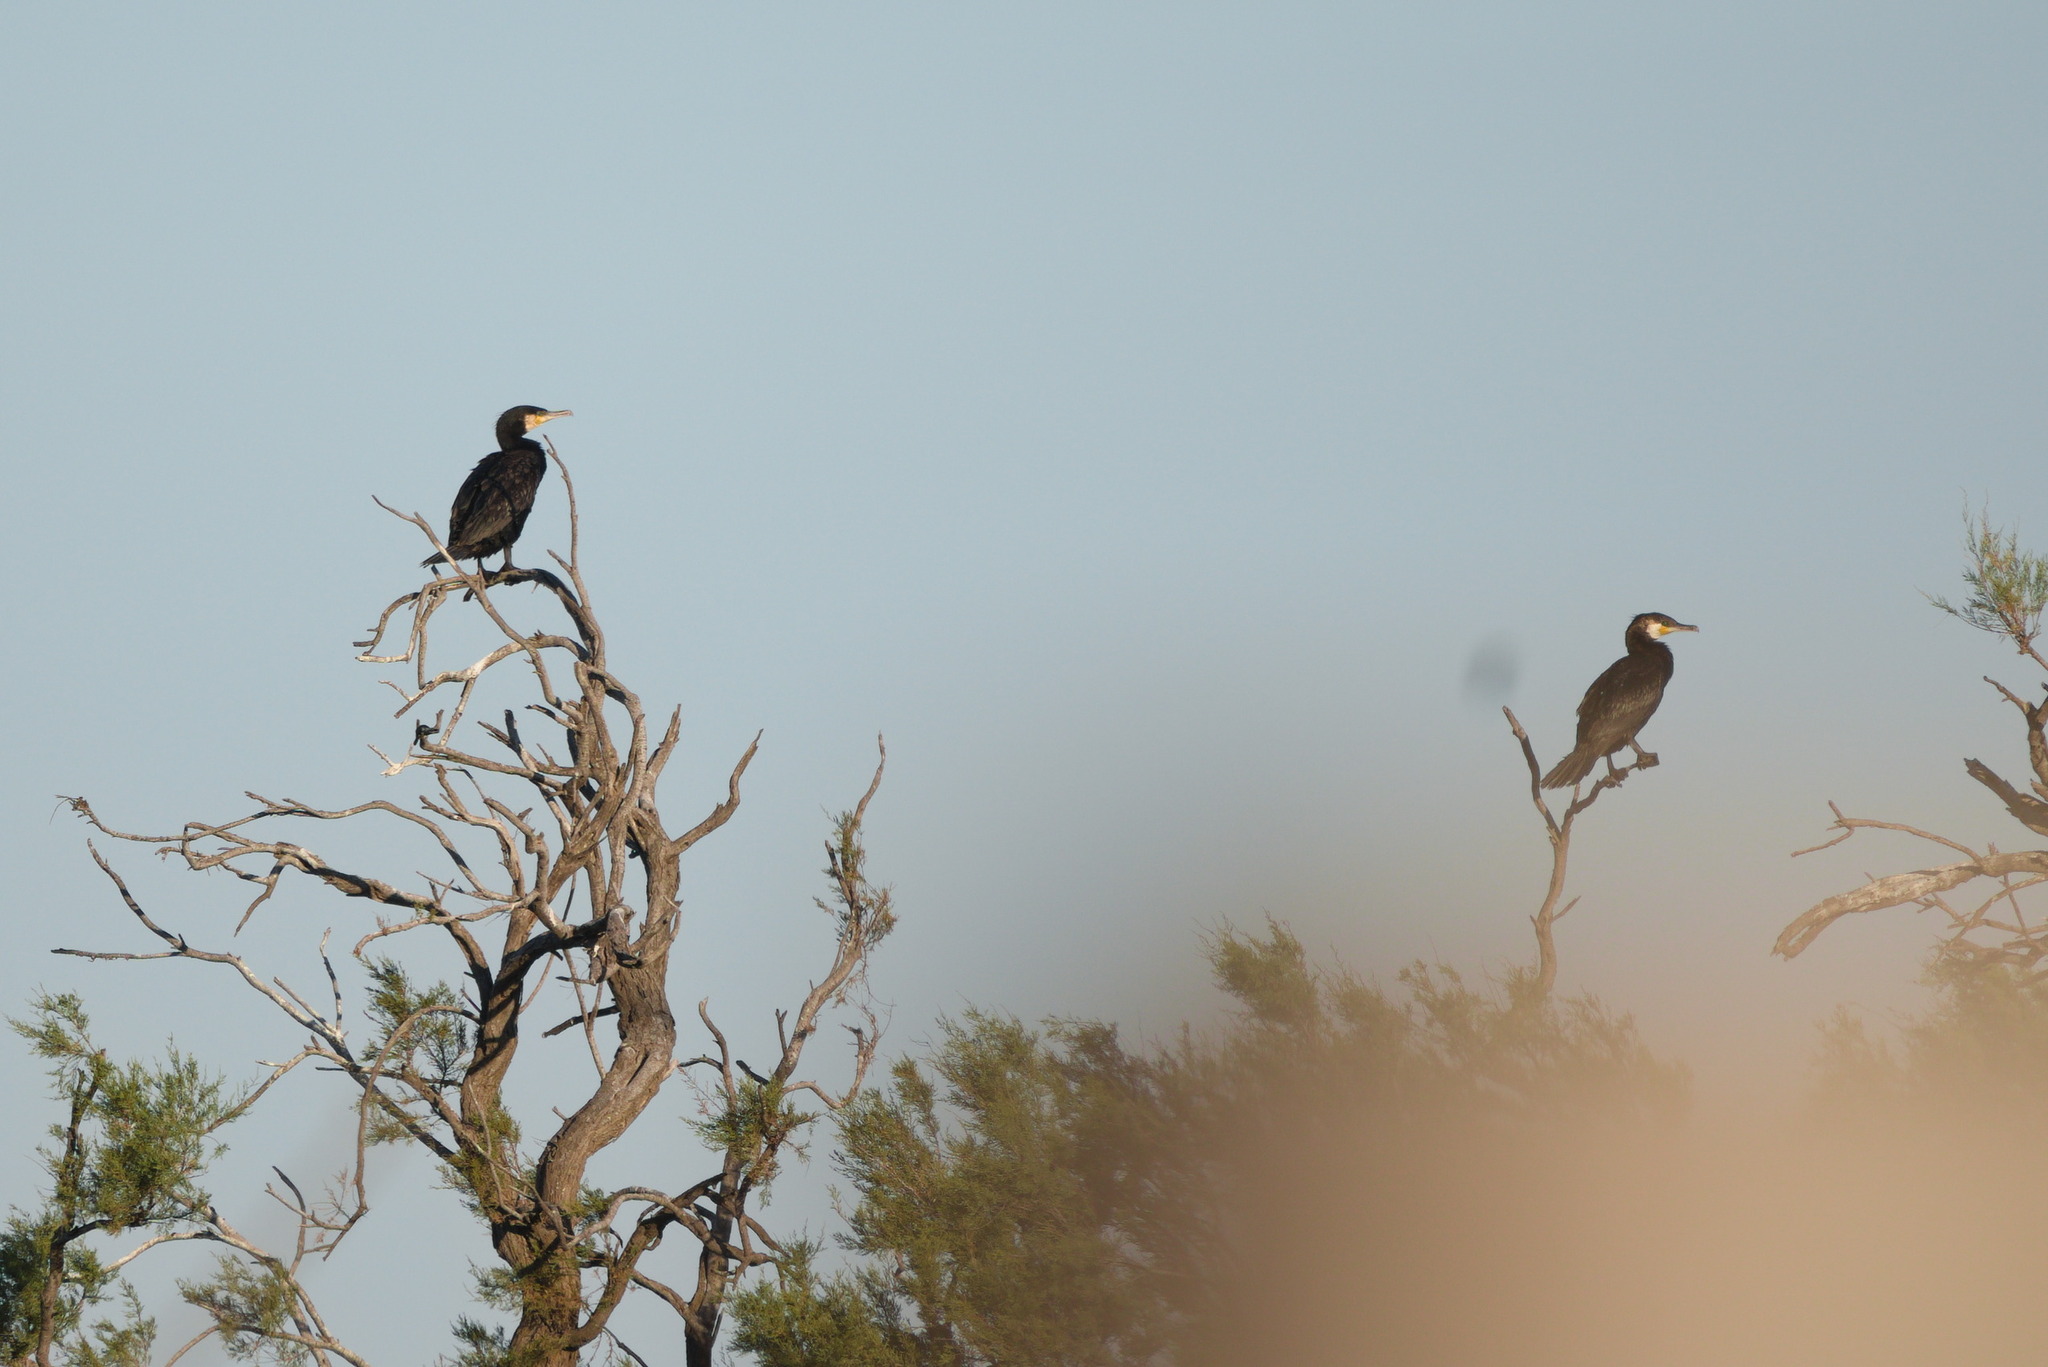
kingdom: Animalia
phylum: Chordata
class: Aves
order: Suliformes
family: Phalacrocoracidae
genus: Phalacrocorax
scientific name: Phalacrocorax carbo
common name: Great cormorant
